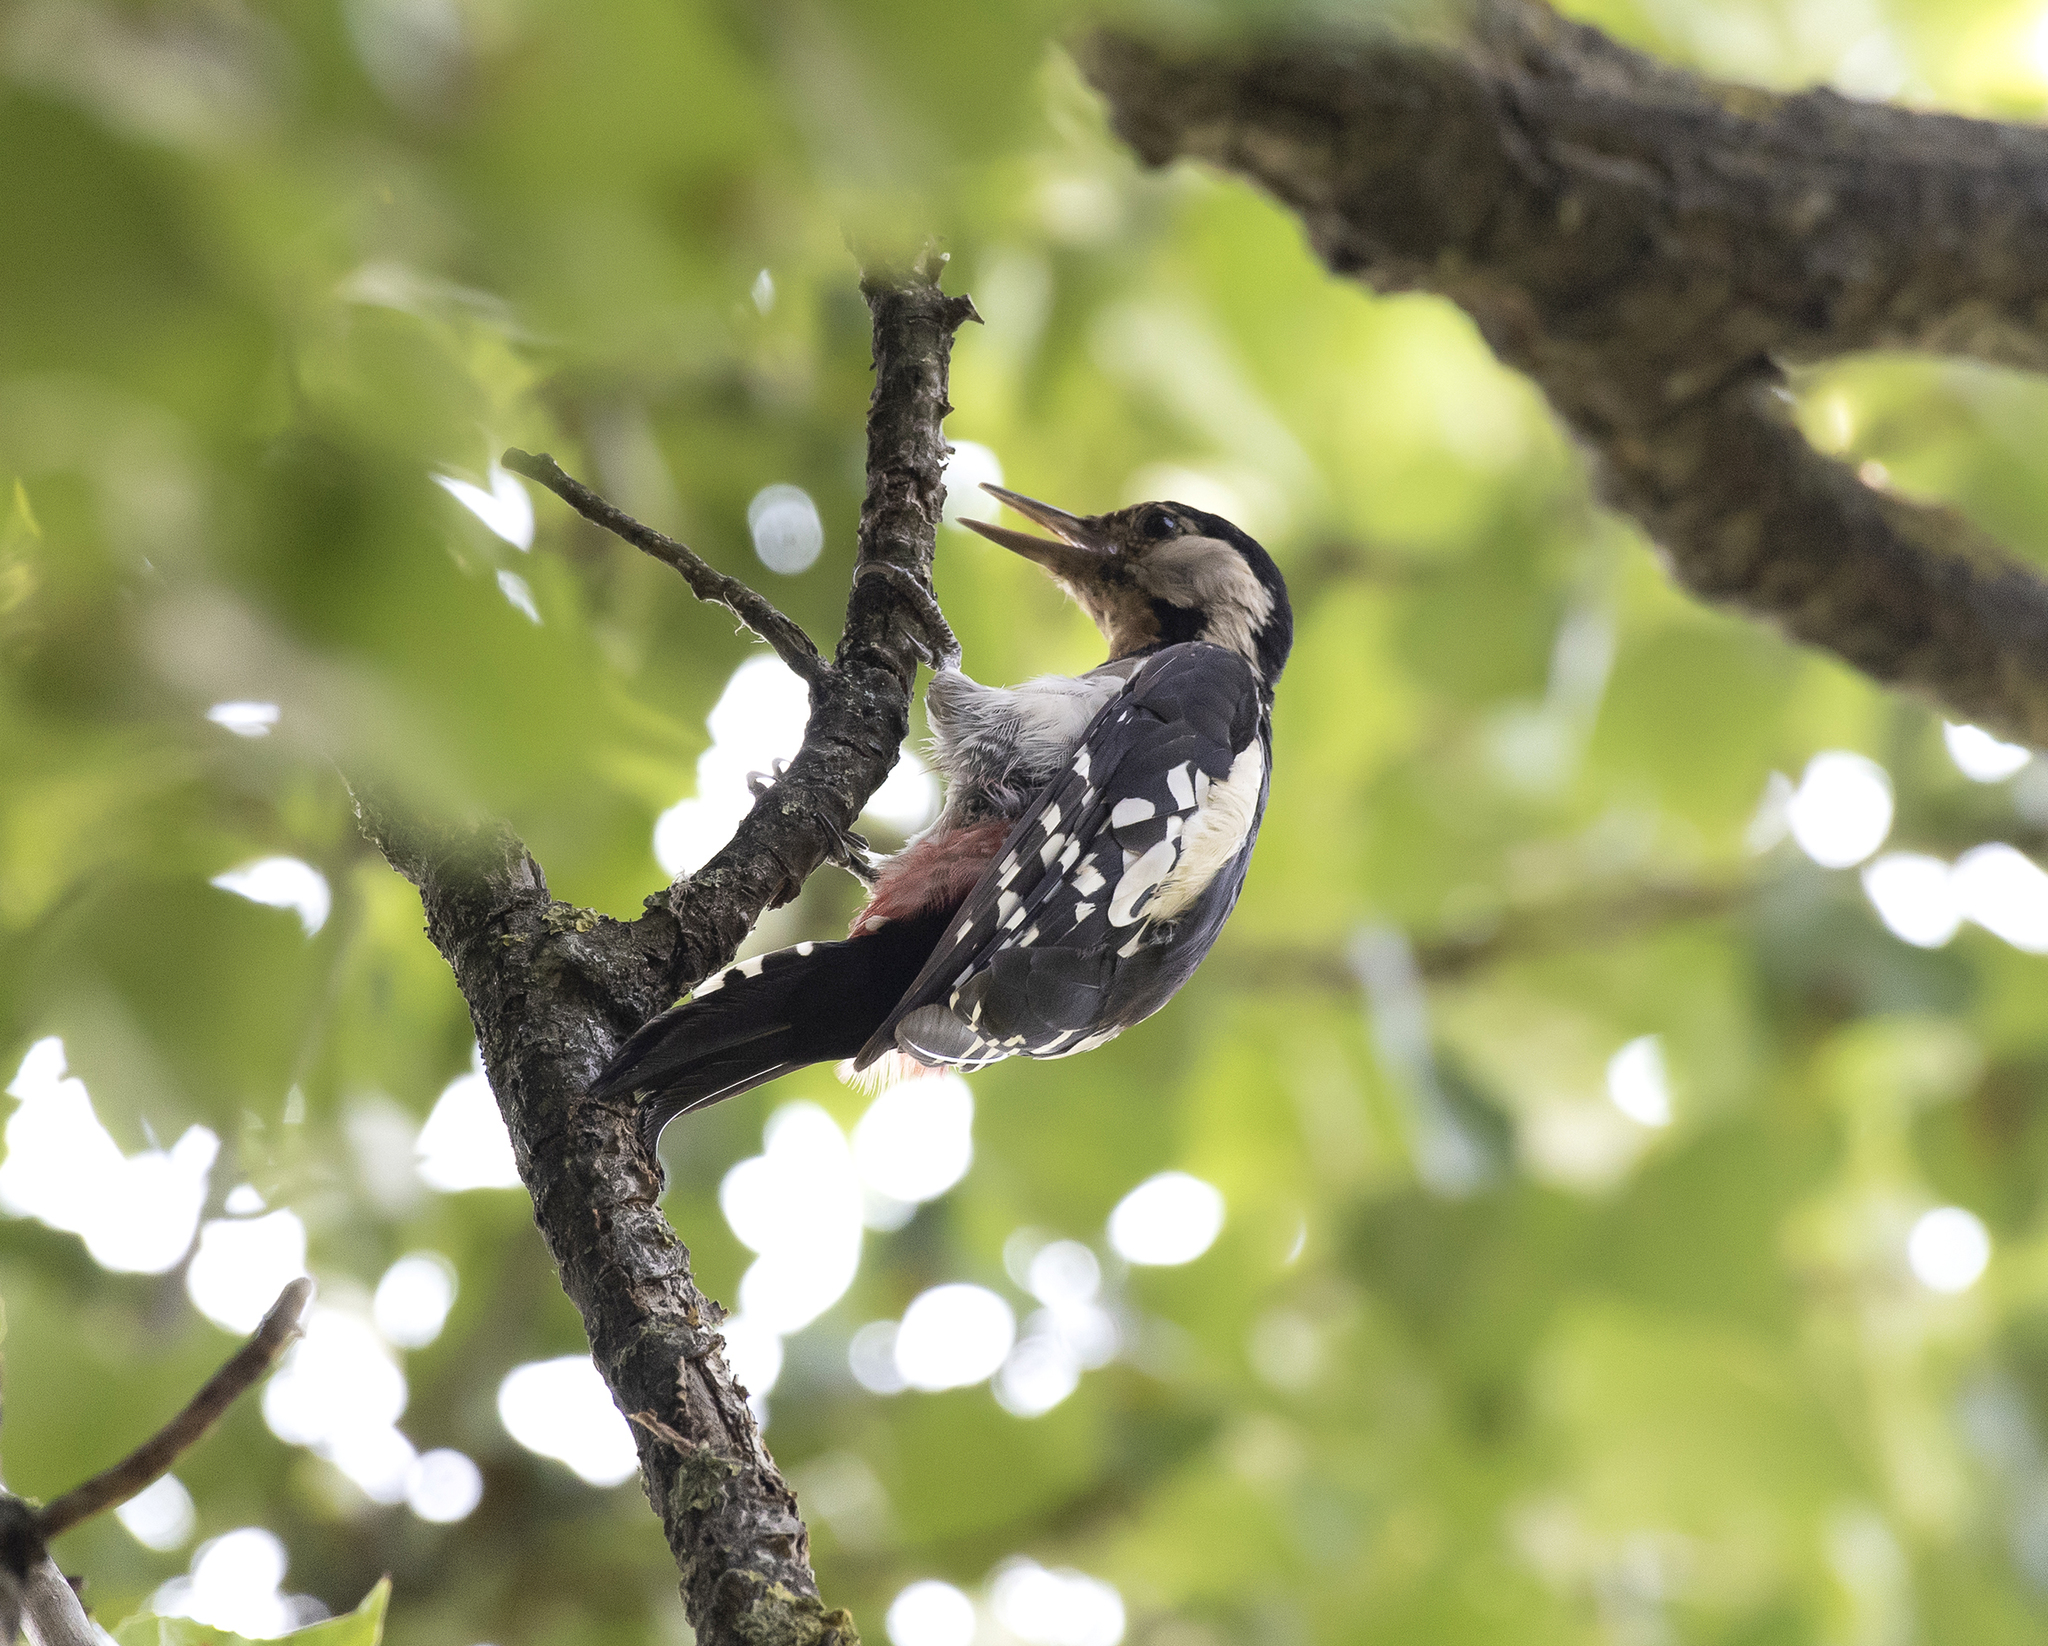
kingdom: Animalia
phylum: Chordata
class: Aves
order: Piciformes
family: Picidae
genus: Dendrocopos
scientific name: Dendrocopos syriacus
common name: Syrian woodpecker
